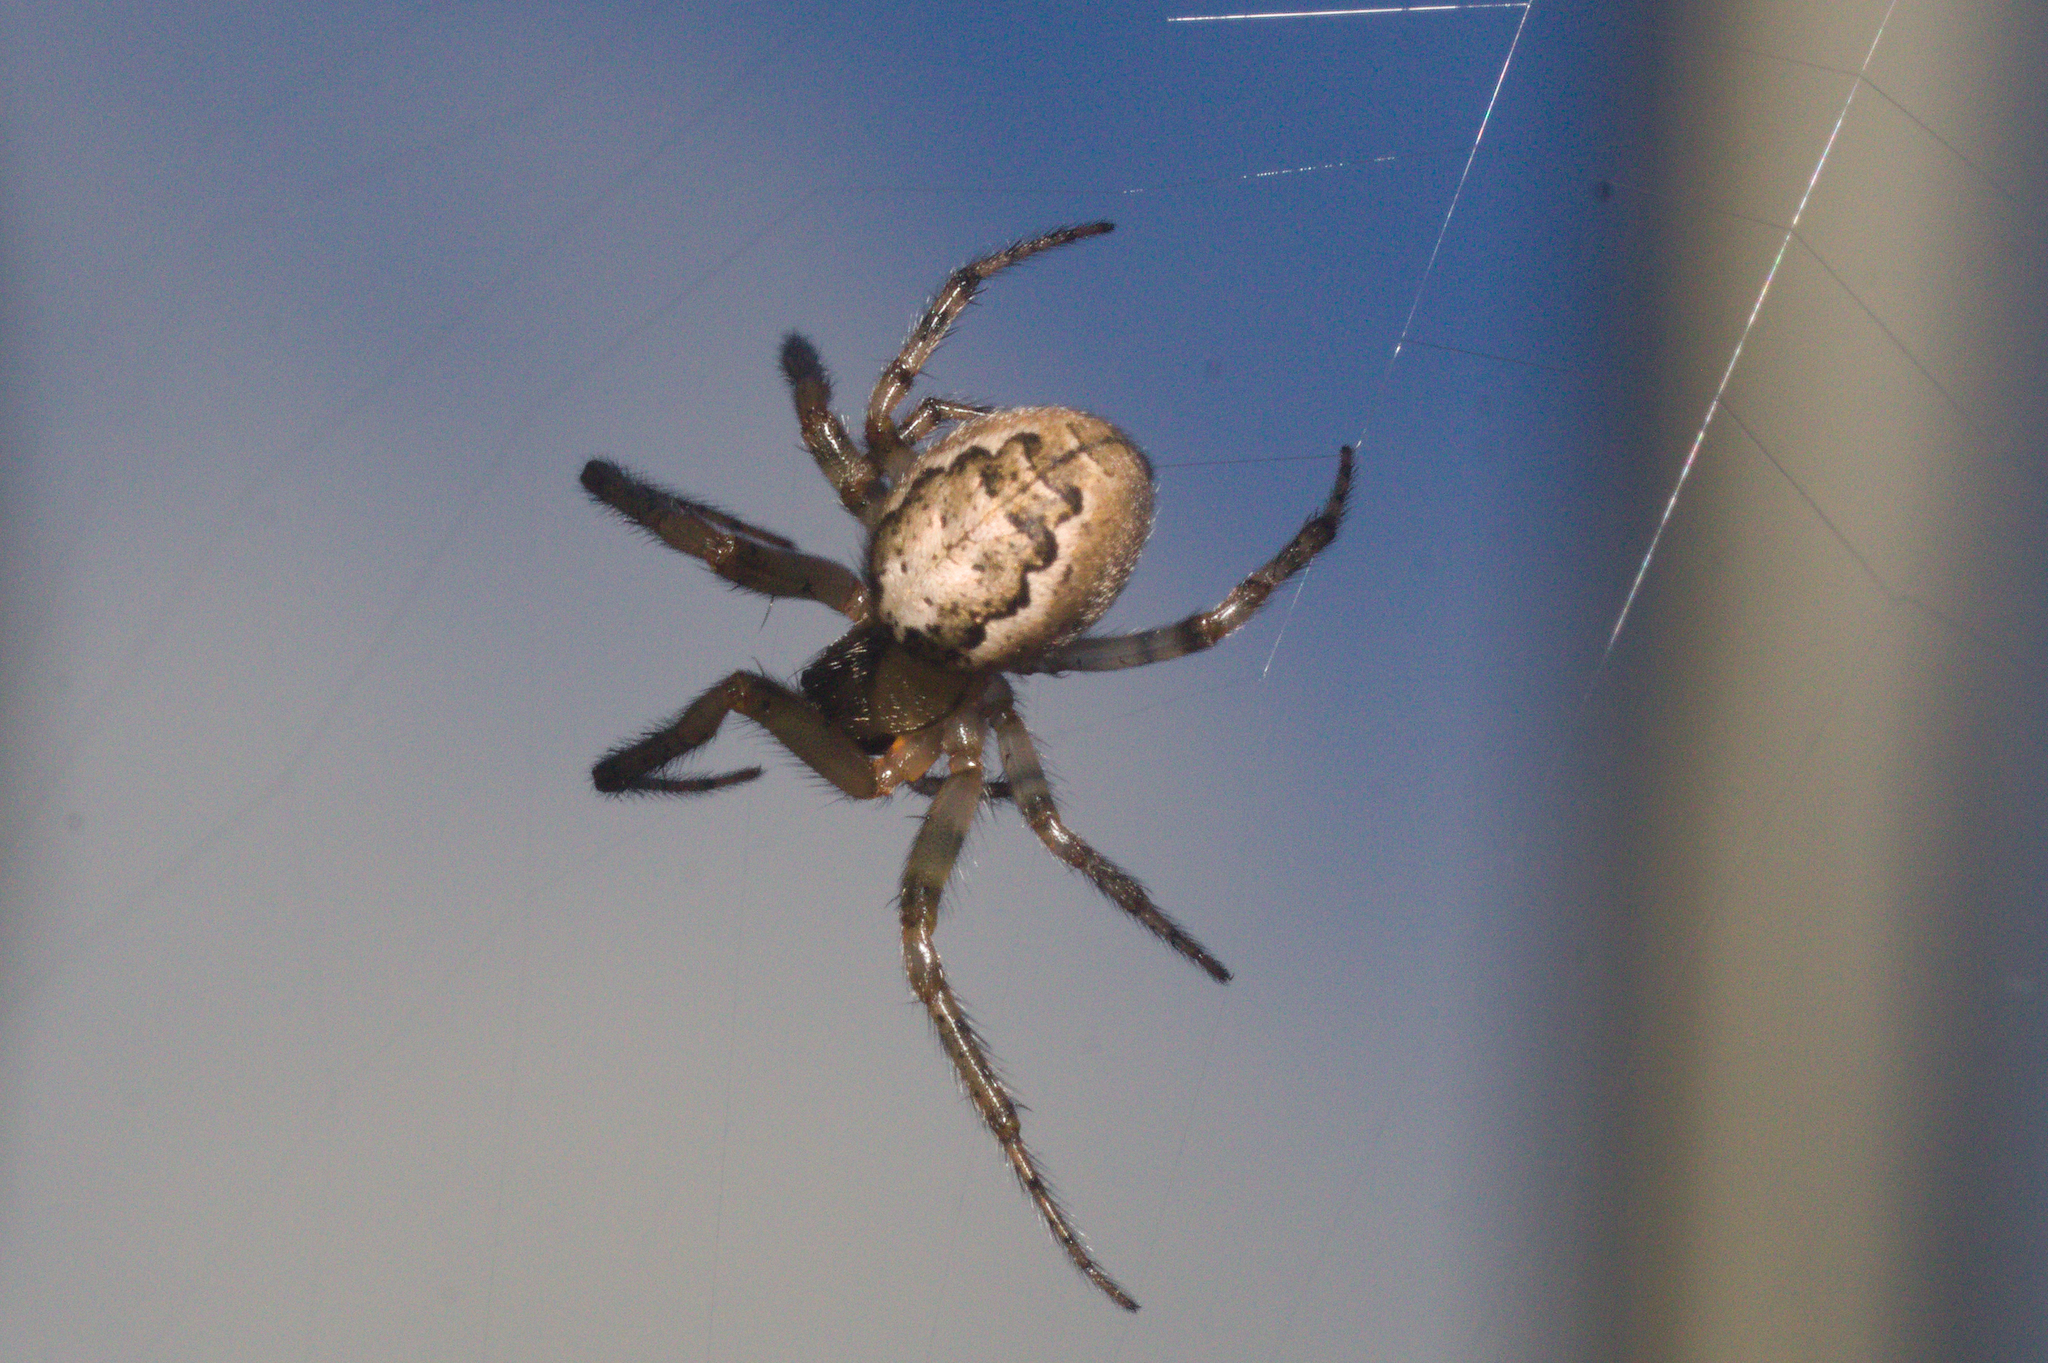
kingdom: Animalia
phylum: Arthropoda
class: Arachnida
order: Araneae
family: Araneidae
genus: Zygiella
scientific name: Zygiella x-notata
